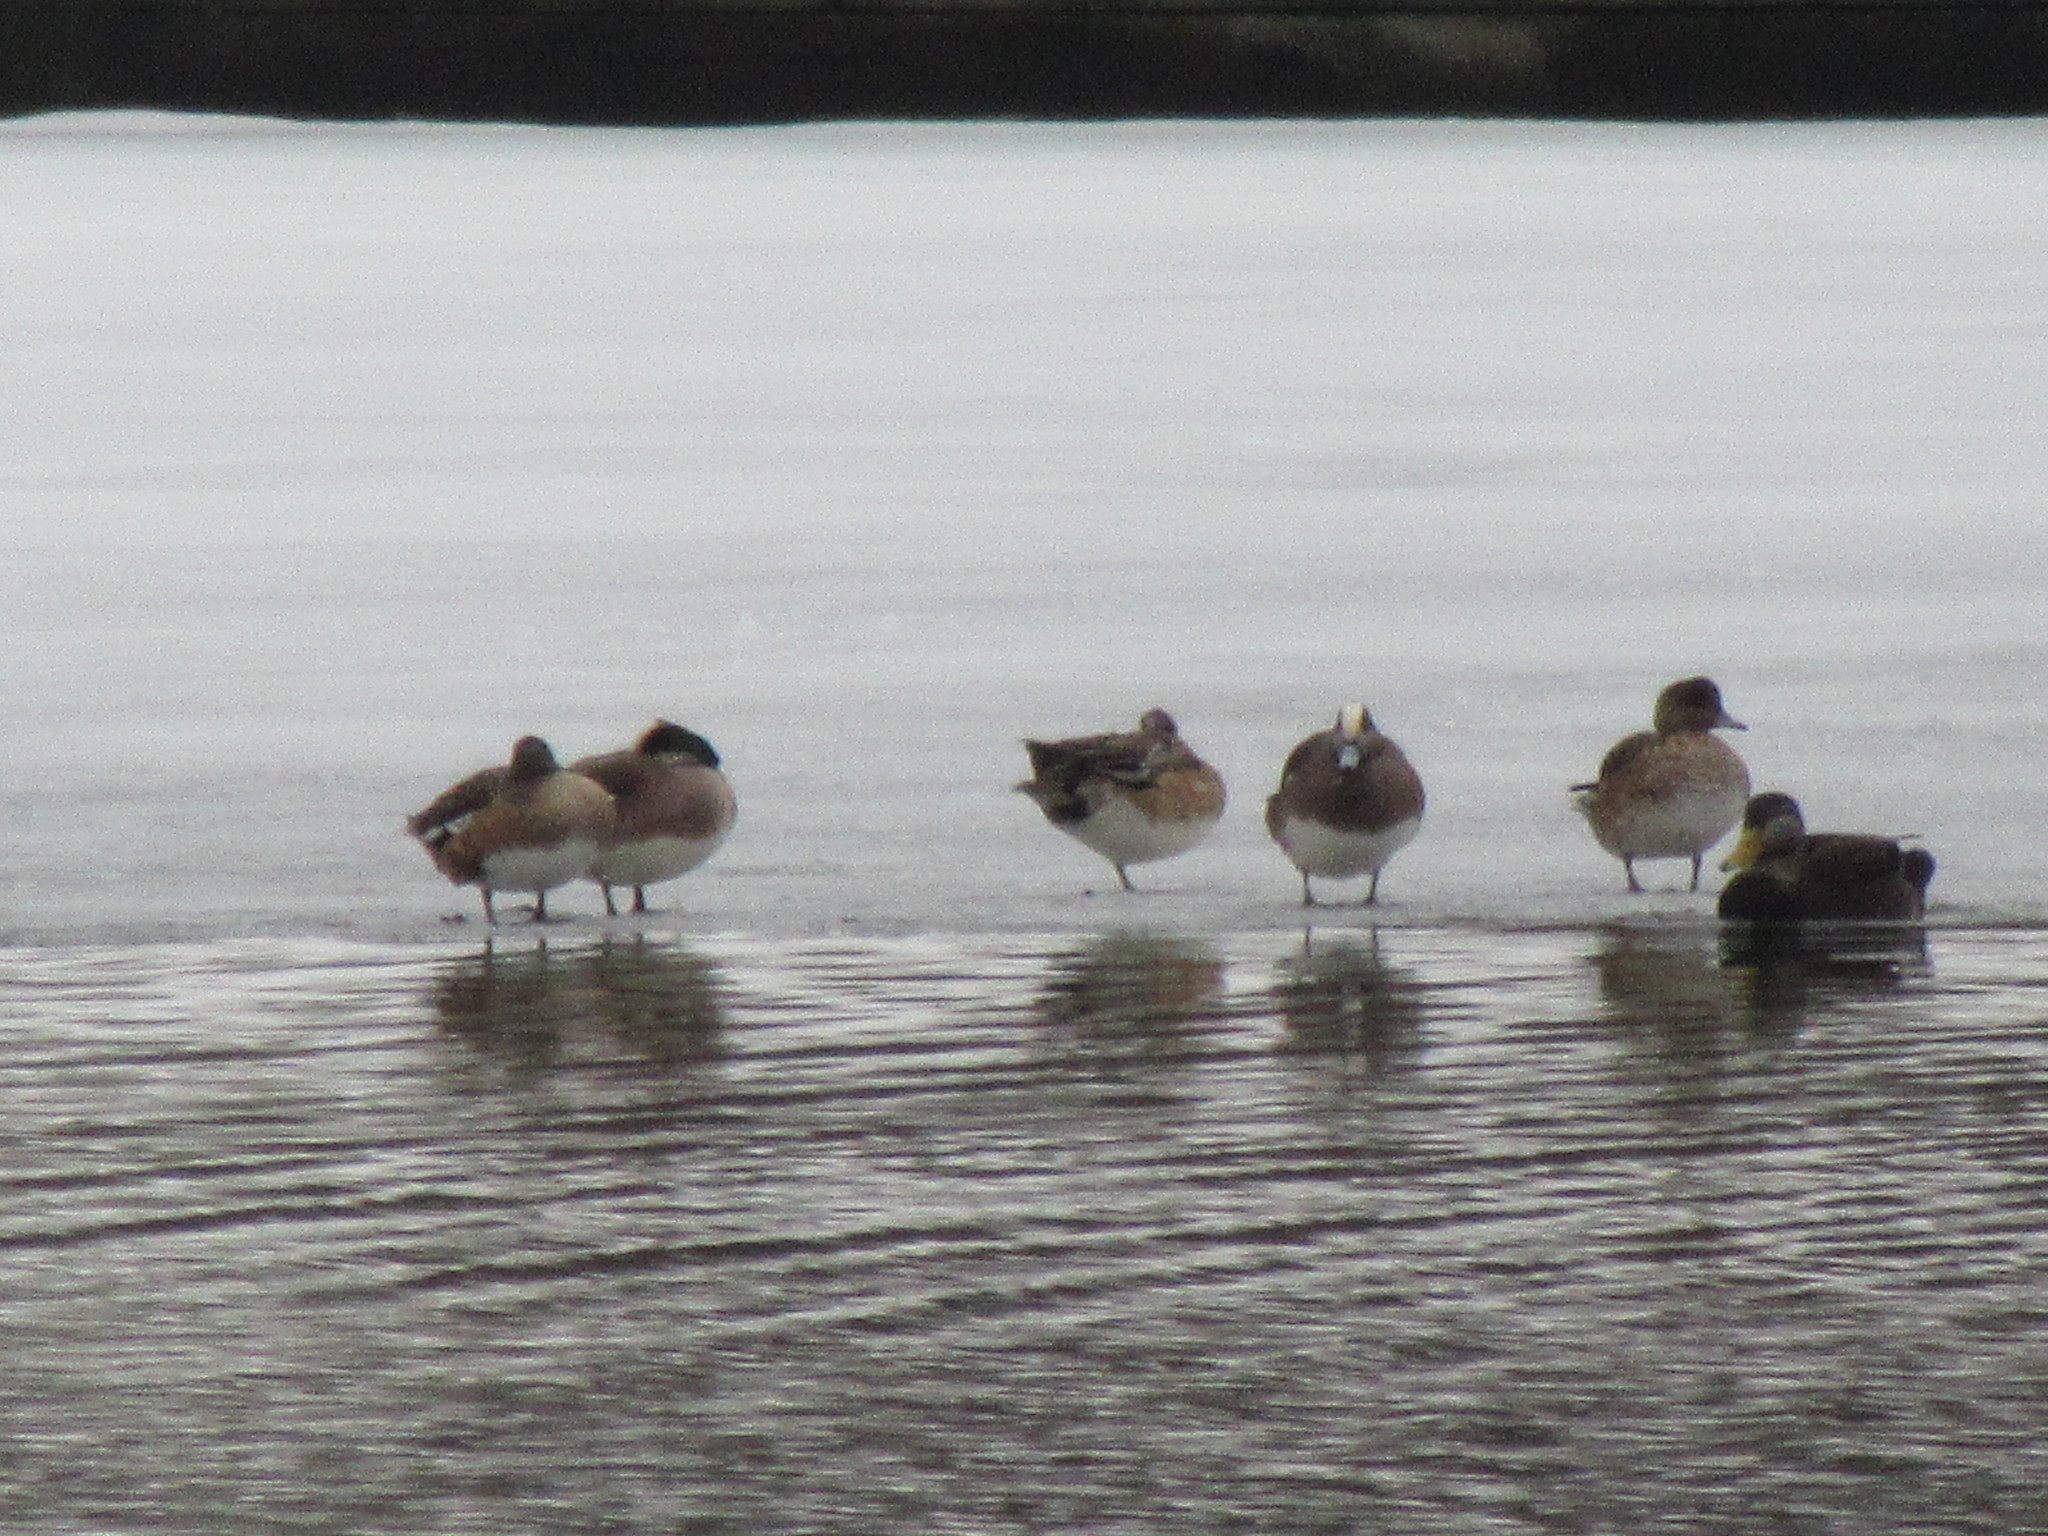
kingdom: Animalia
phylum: Chordata
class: Aves
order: Anseriformes
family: Anatidae
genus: Mareca
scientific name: Mareca americana
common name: American wigeon
